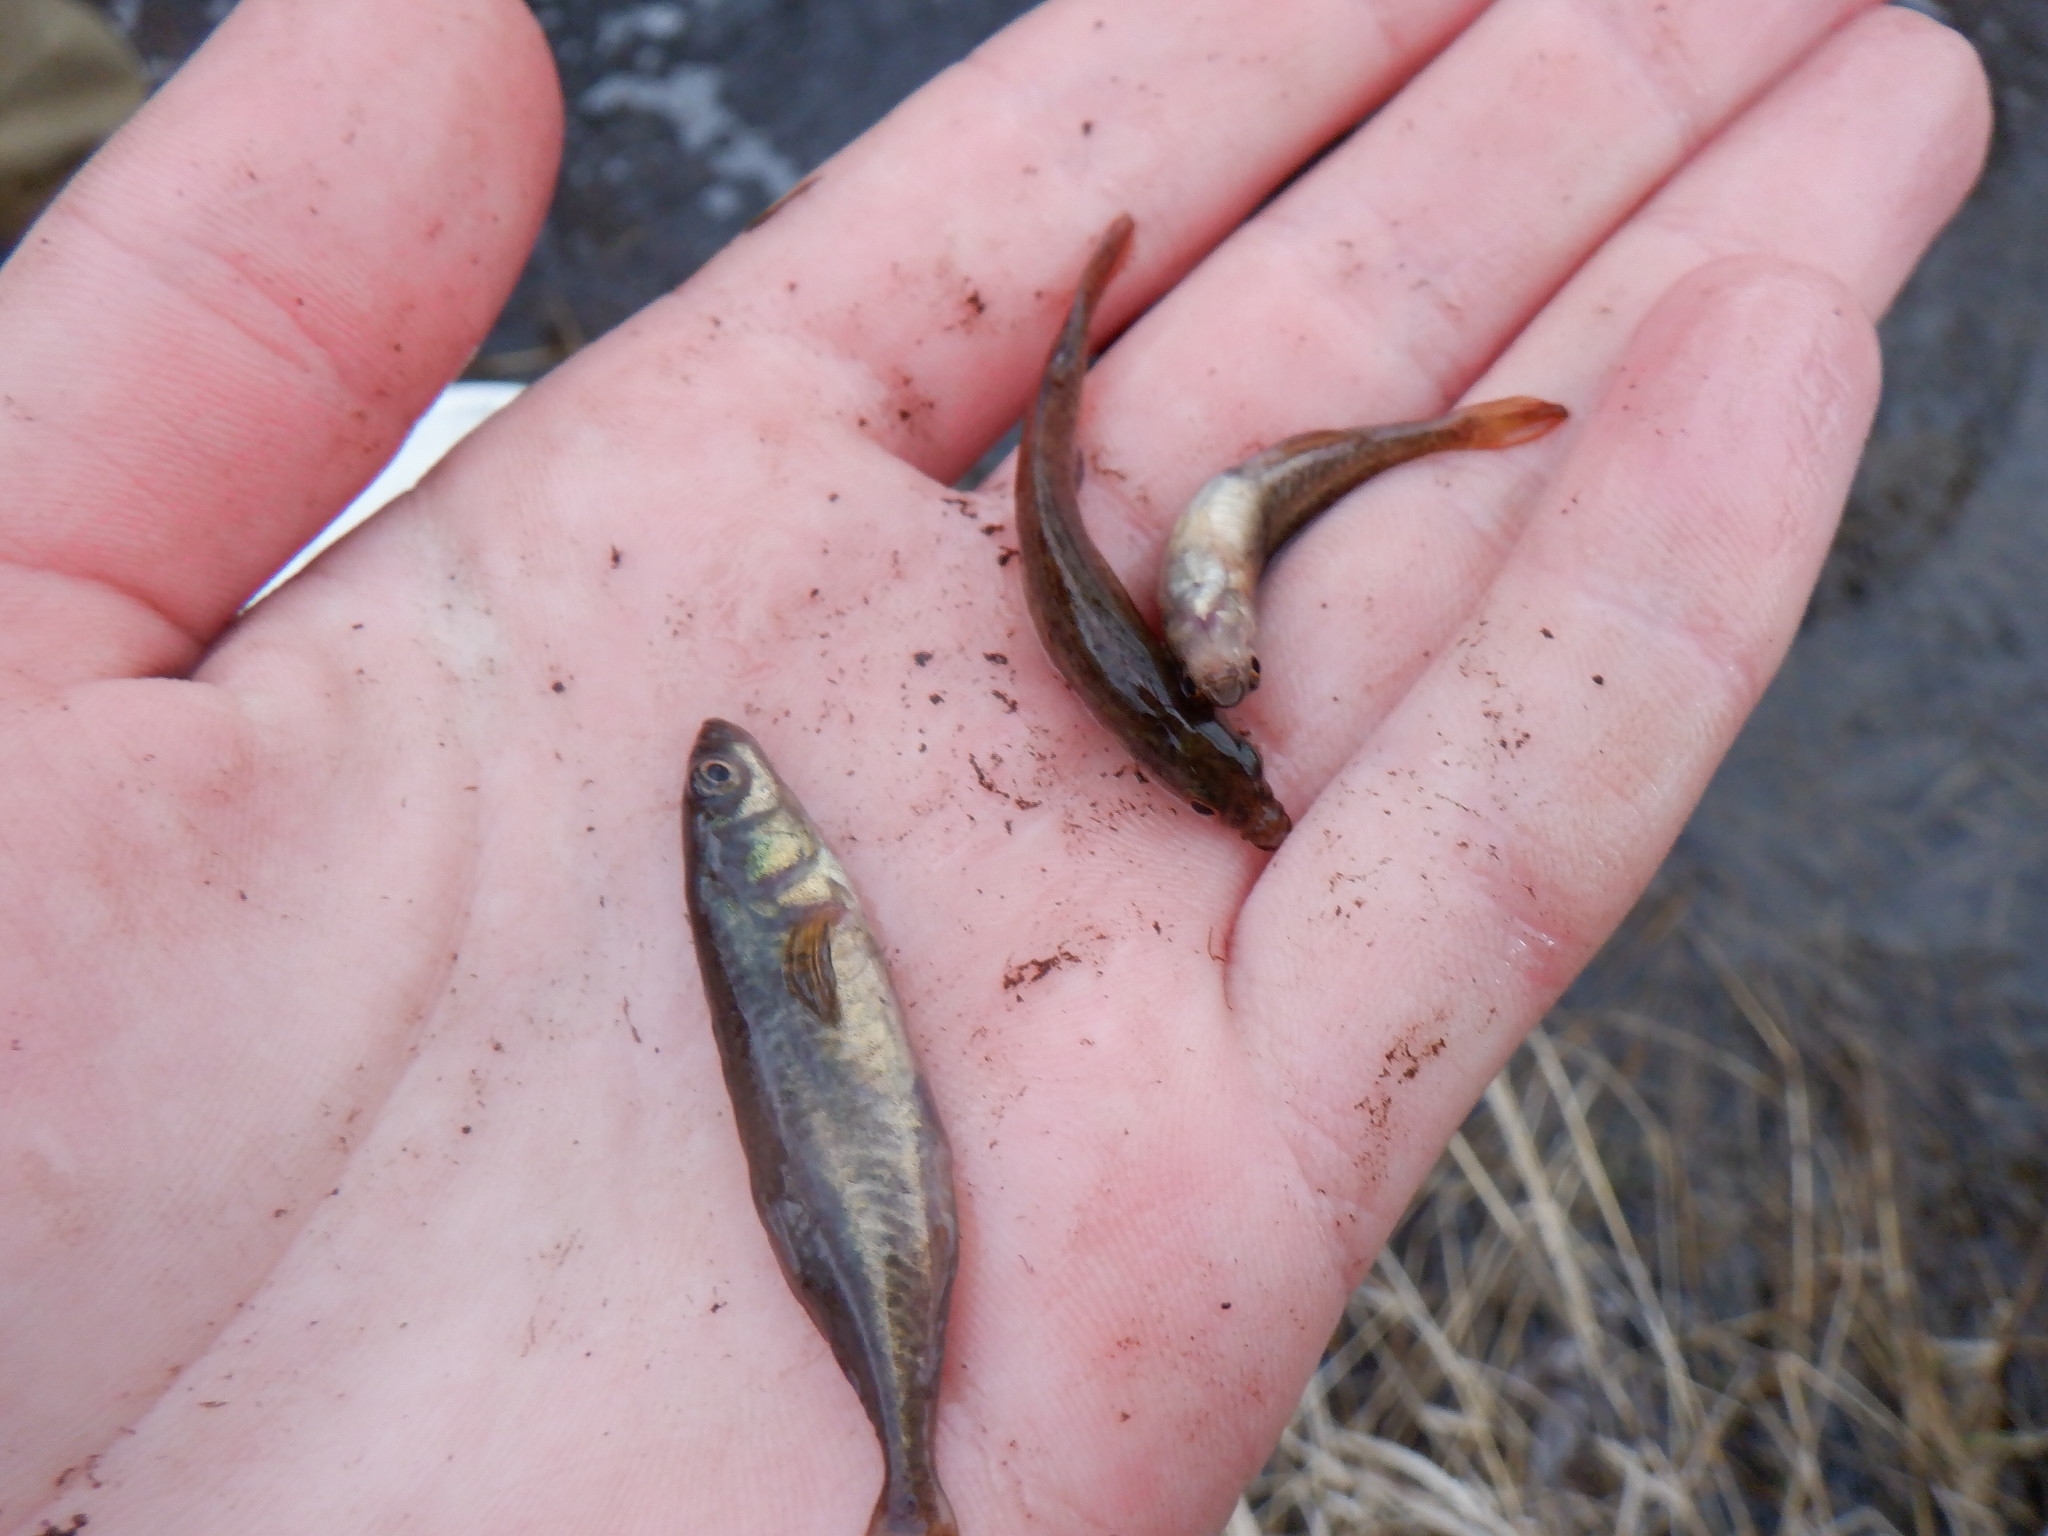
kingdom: Animalia
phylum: Chordata
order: Gasterosteiformes
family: Gasterosteidae
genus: Culaea
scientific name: Culaea inconstans
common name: Brook stickleback
